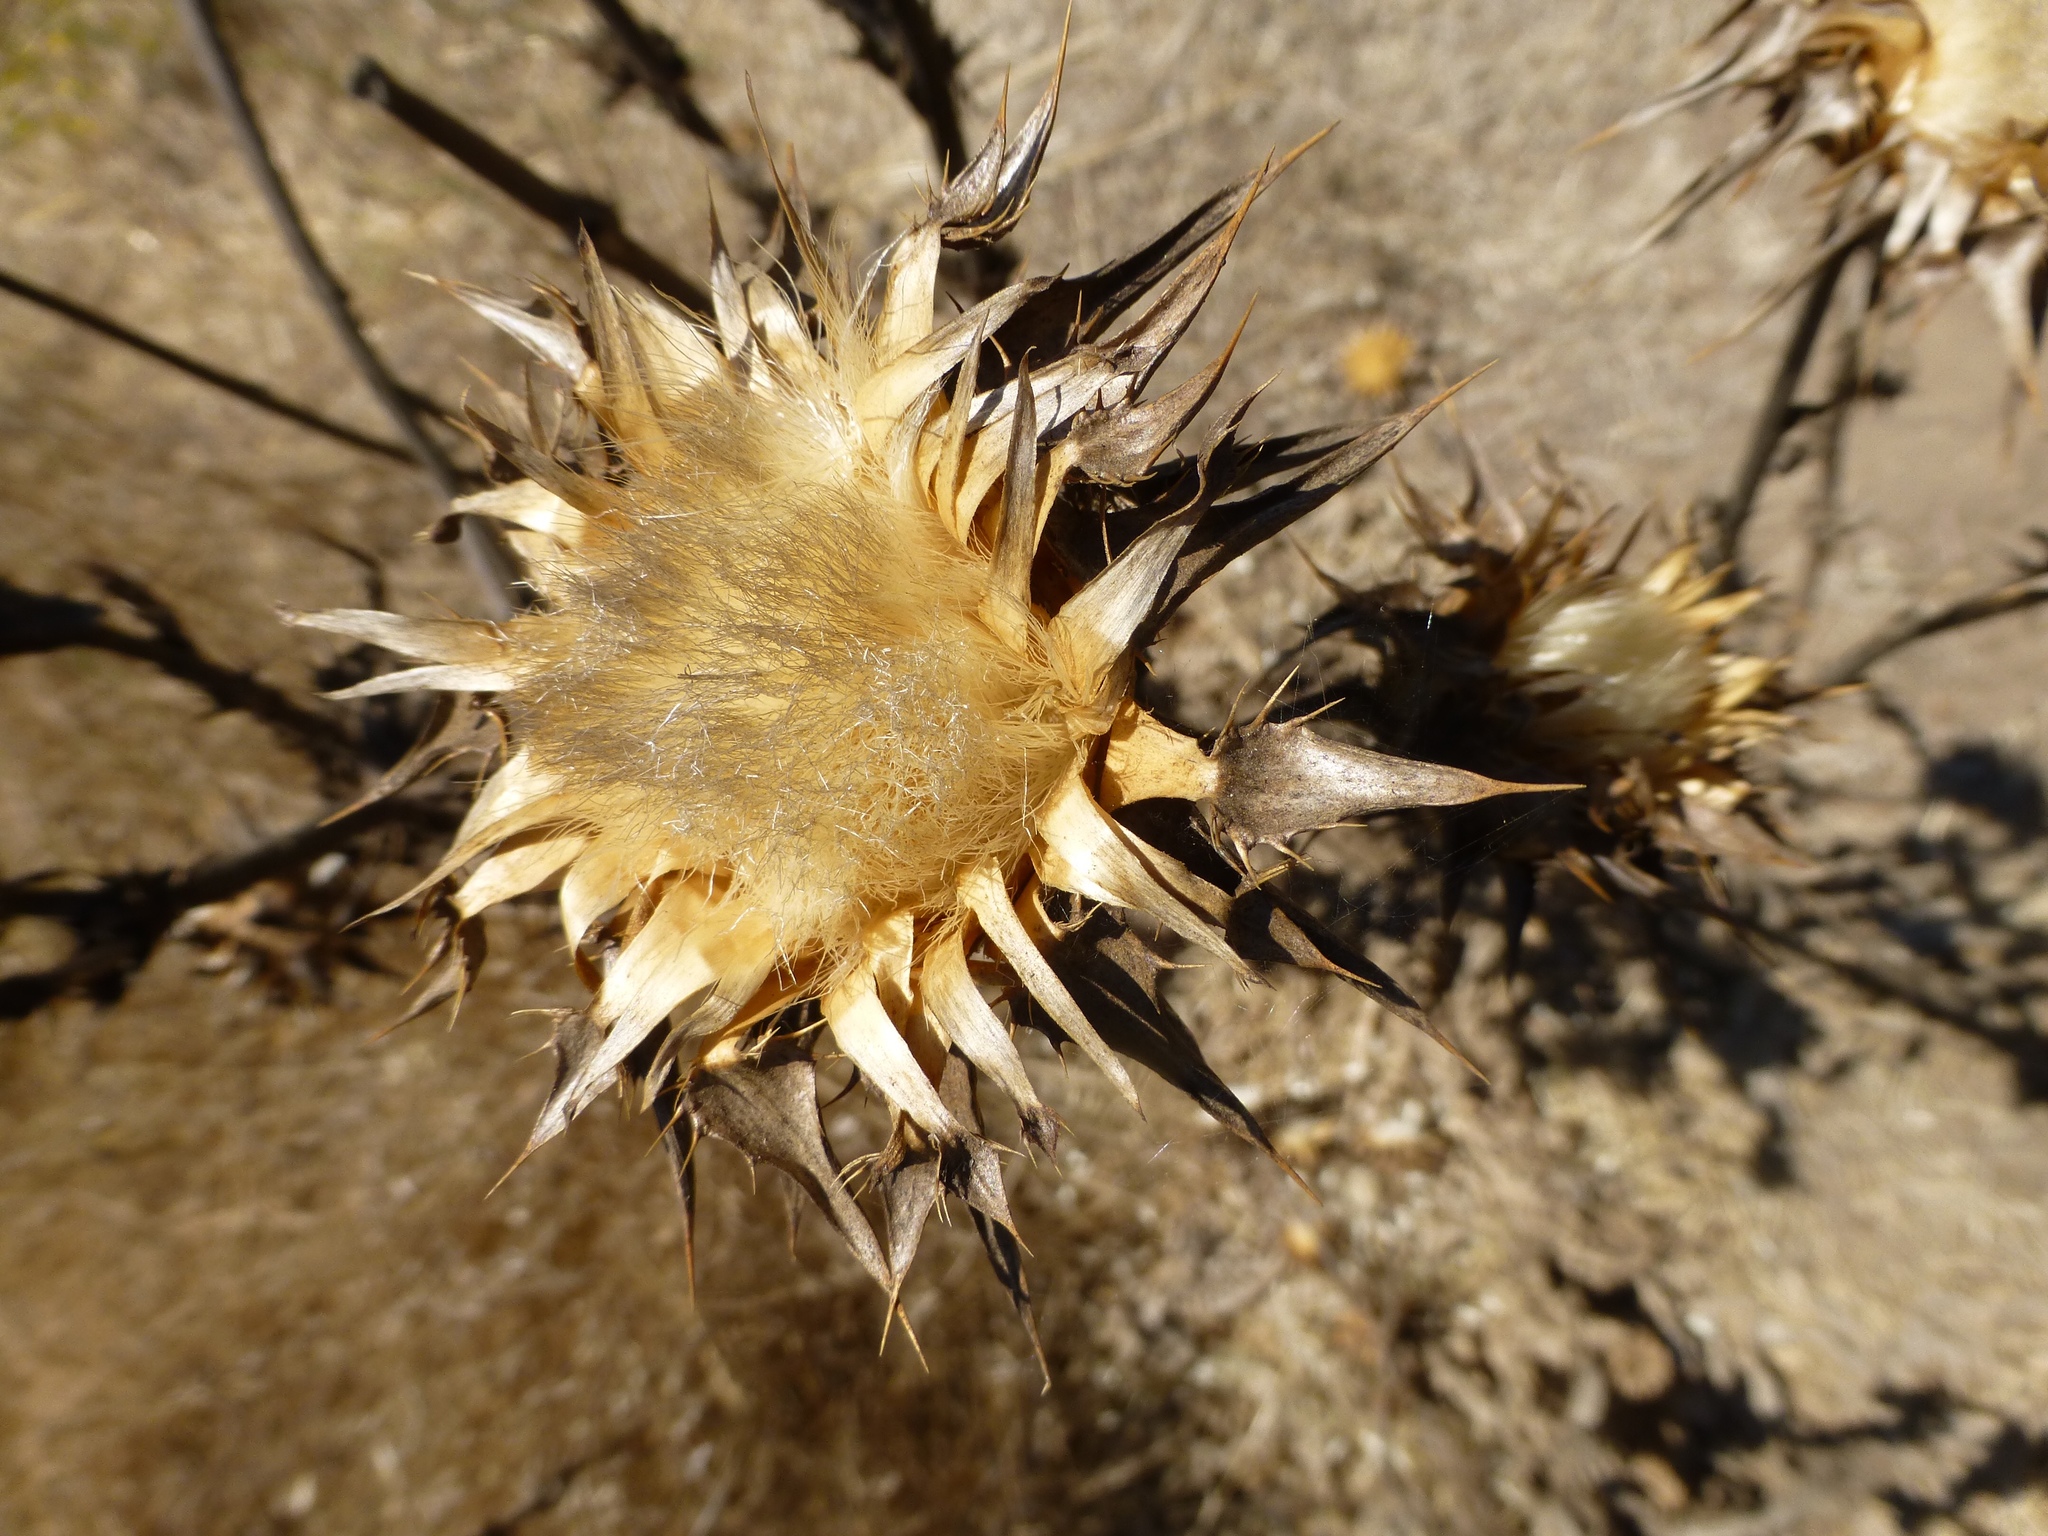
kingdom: Plantae
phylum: Tracheophyta
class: Magnoliopsida
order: Asterales
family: Asteraceae
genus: Silybum
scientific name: Silybum marianum
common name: Milk thistle
